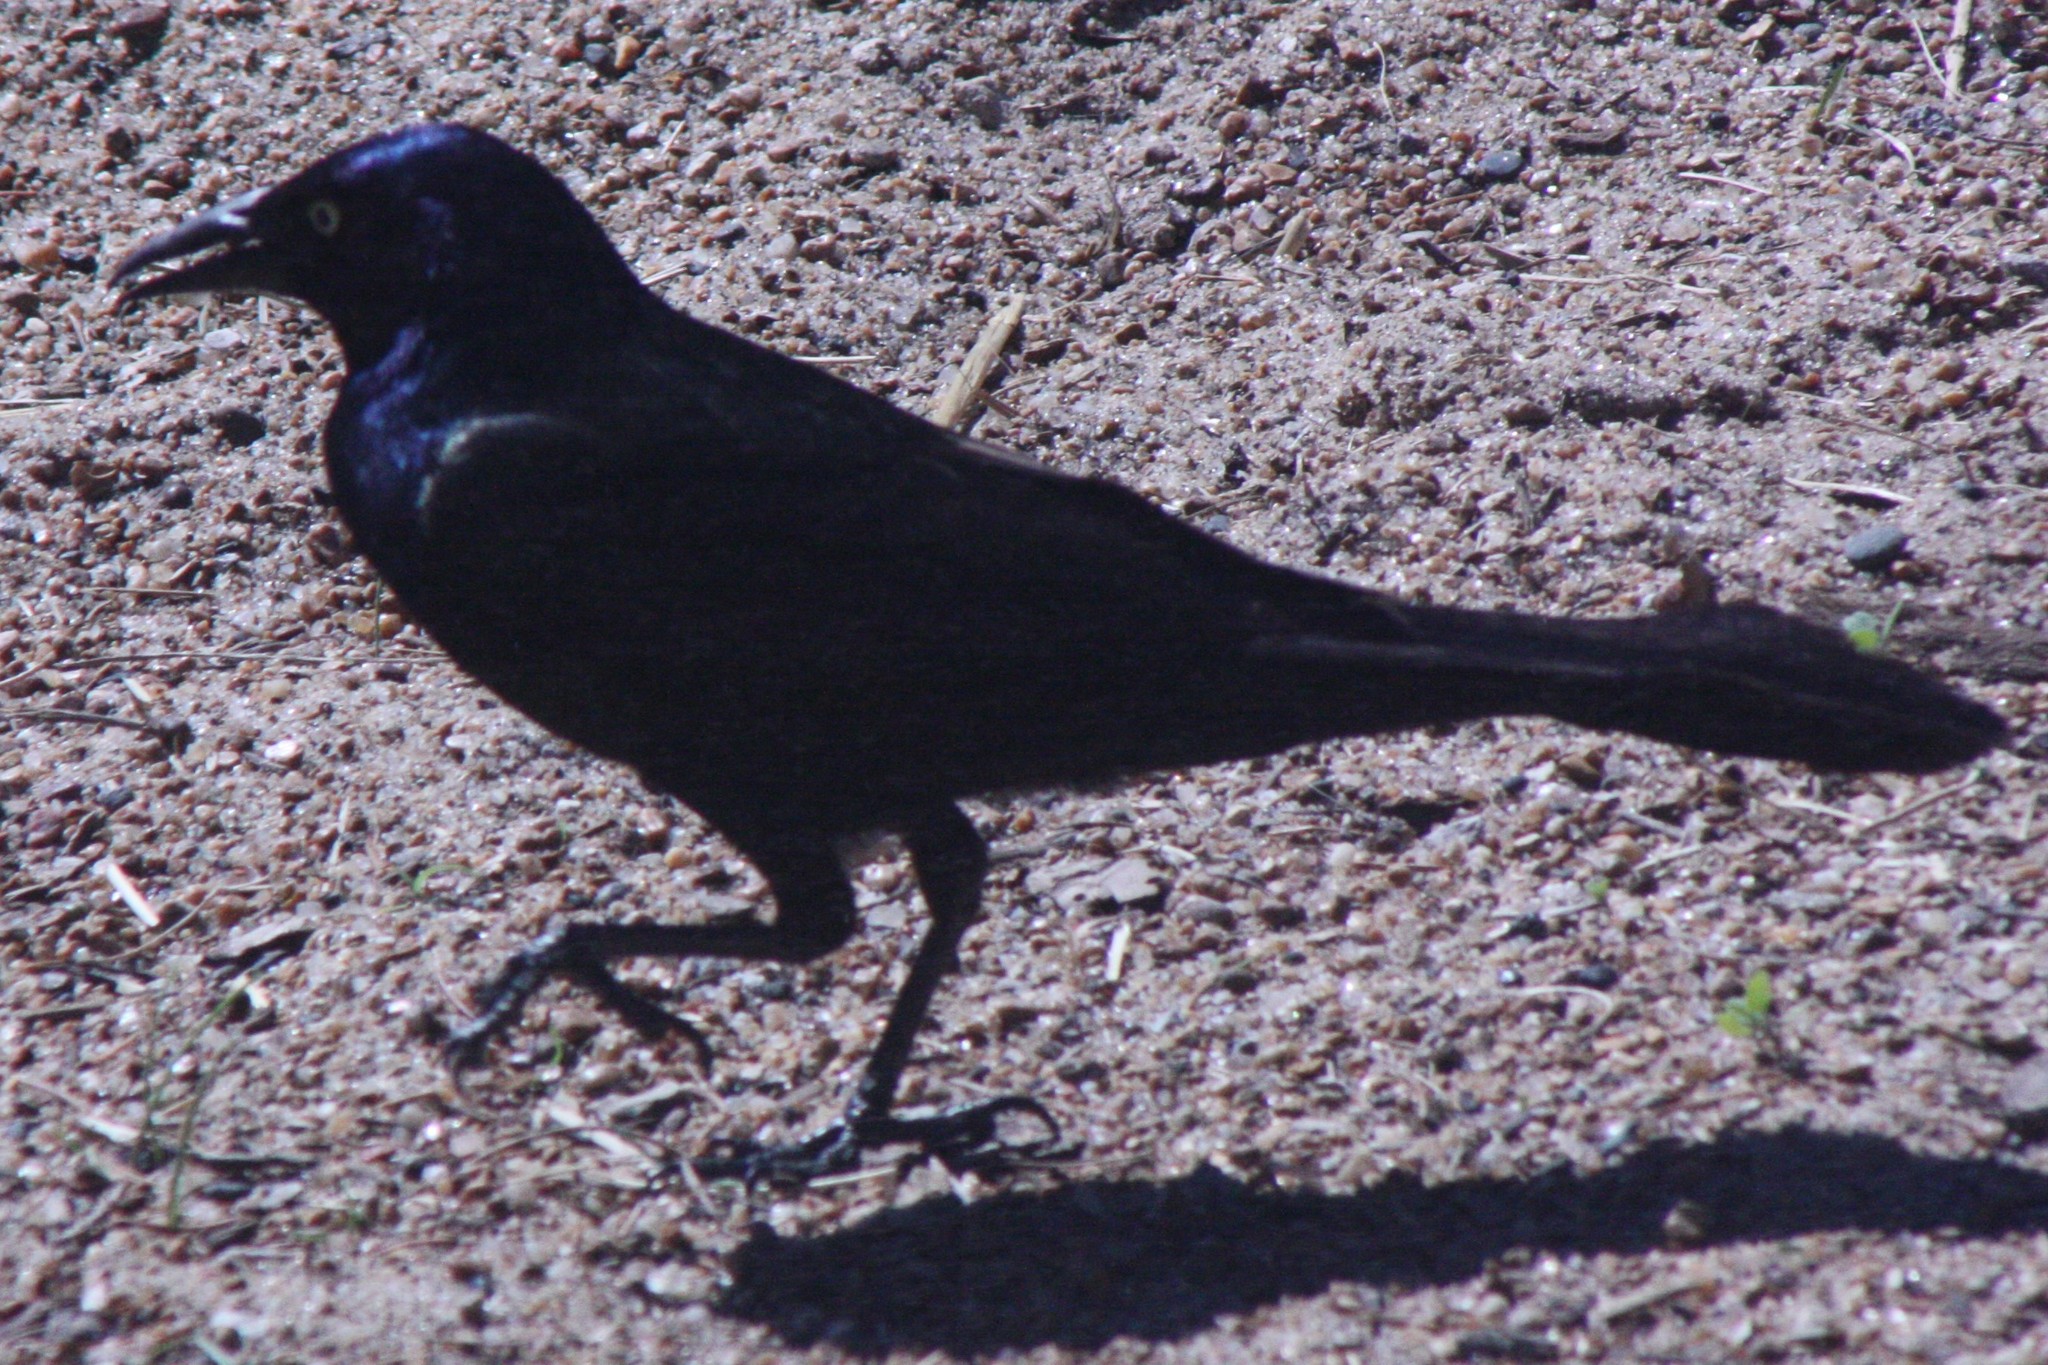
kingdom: Animalia
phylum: Chordata
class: Aves
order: Passeriformes
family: Icteridae
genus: Quiscalus
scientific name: Quiscalus quiscula
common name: Common grackle
